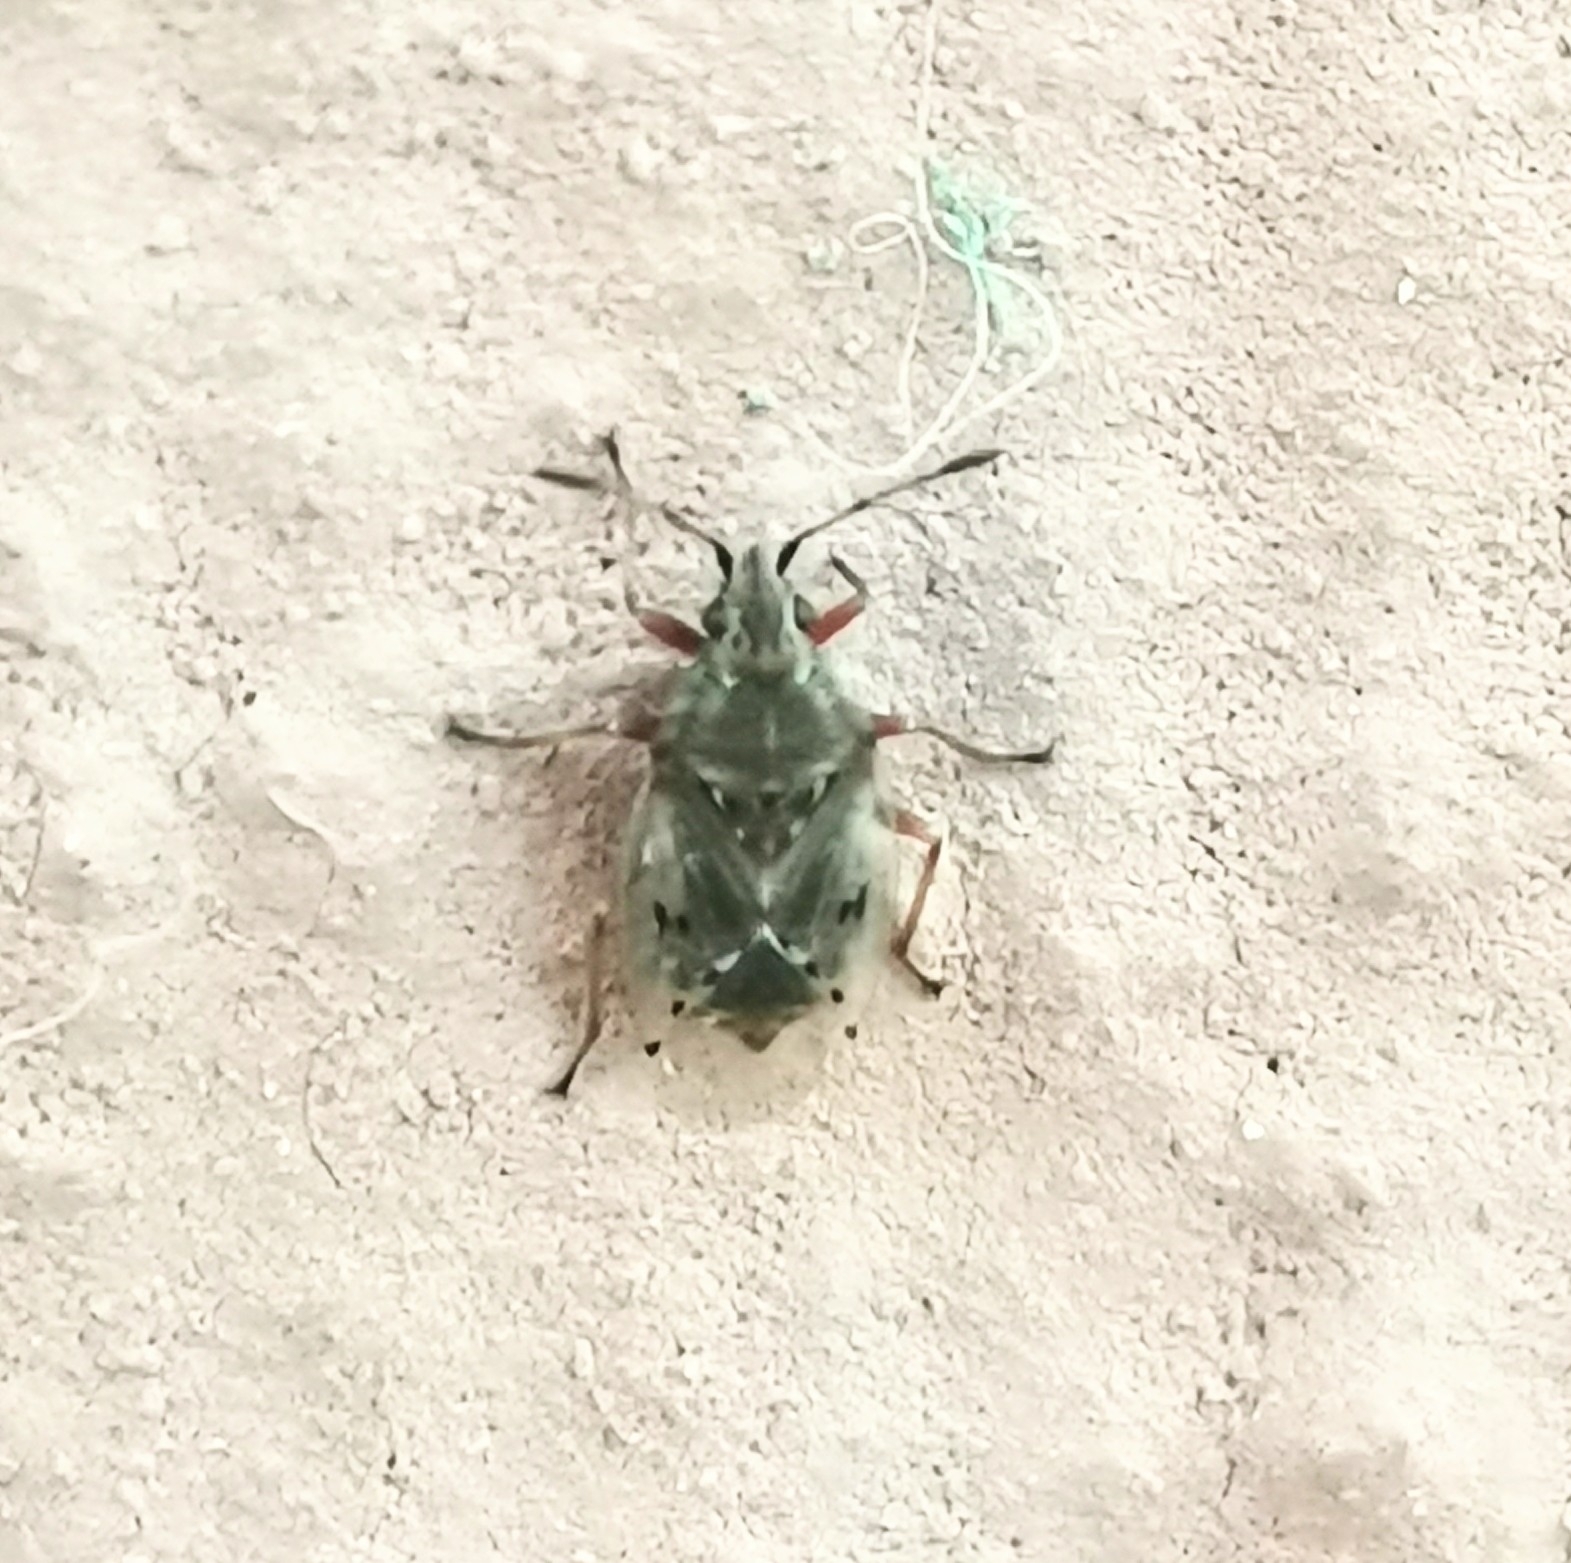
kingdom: Animalia
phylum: Arthropoda
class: Insecta
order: Hemiptera
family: Lygaeidae
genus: Kleidocerys
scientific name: Kleidocerys resedae
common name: Birch catkin bug
